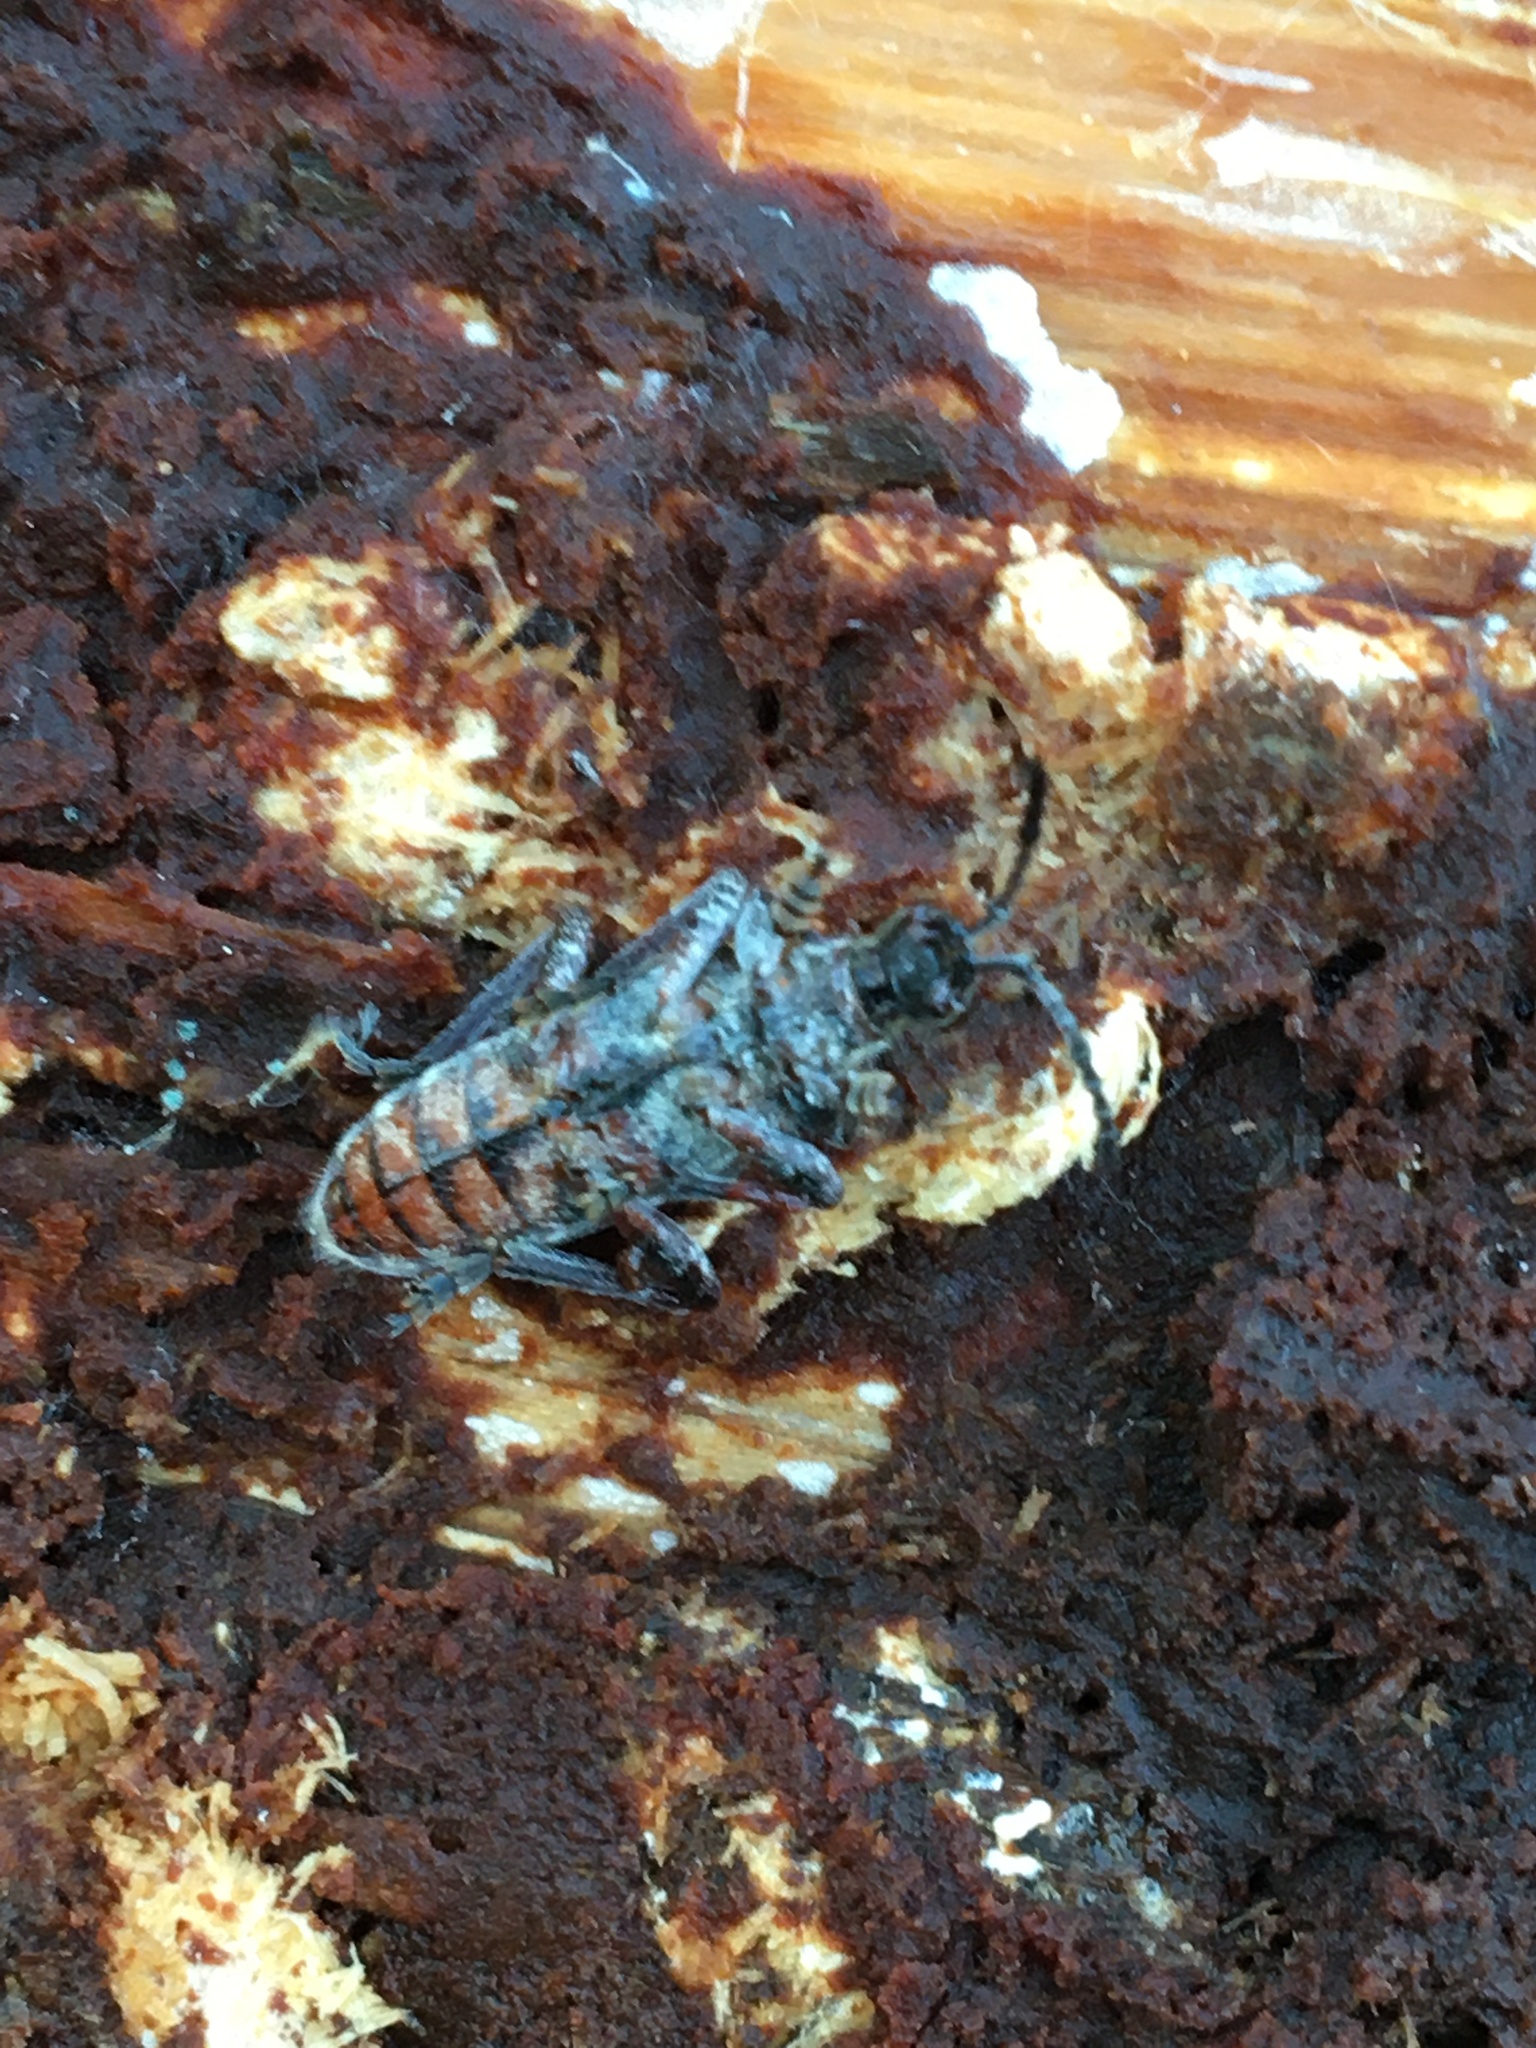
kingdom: Animalia
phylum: Arthropoda
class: Insecta
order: Coleoptera
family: Cerambycidae
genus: Rhagium
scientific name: Rhagium inquisitor
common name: Ribbed pine borer
